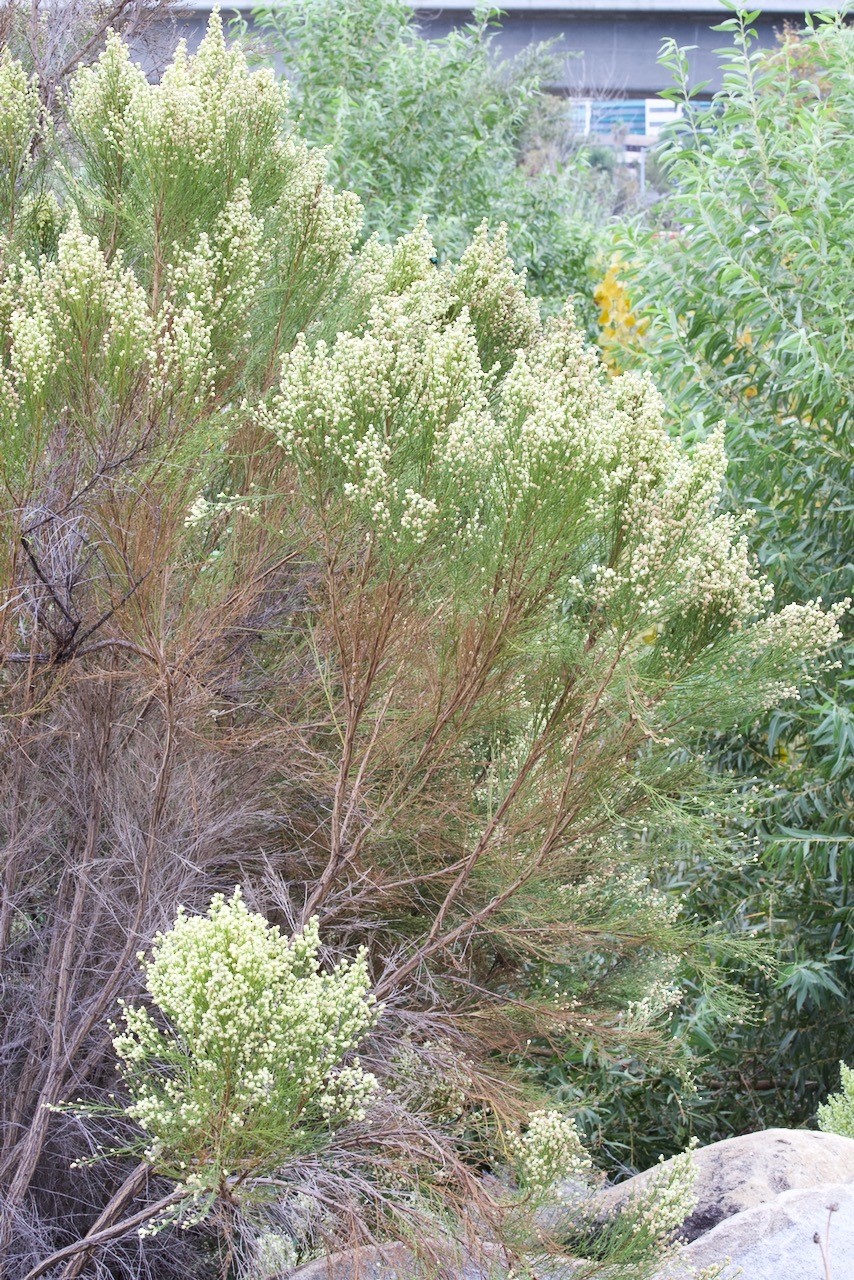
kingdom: Plantae
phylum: Tracheophyta
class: Magnoliopsida
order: Asterales
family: Asteraceae
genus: Baccharis
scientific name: Baccharis sarothroides
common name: Desert-broom
